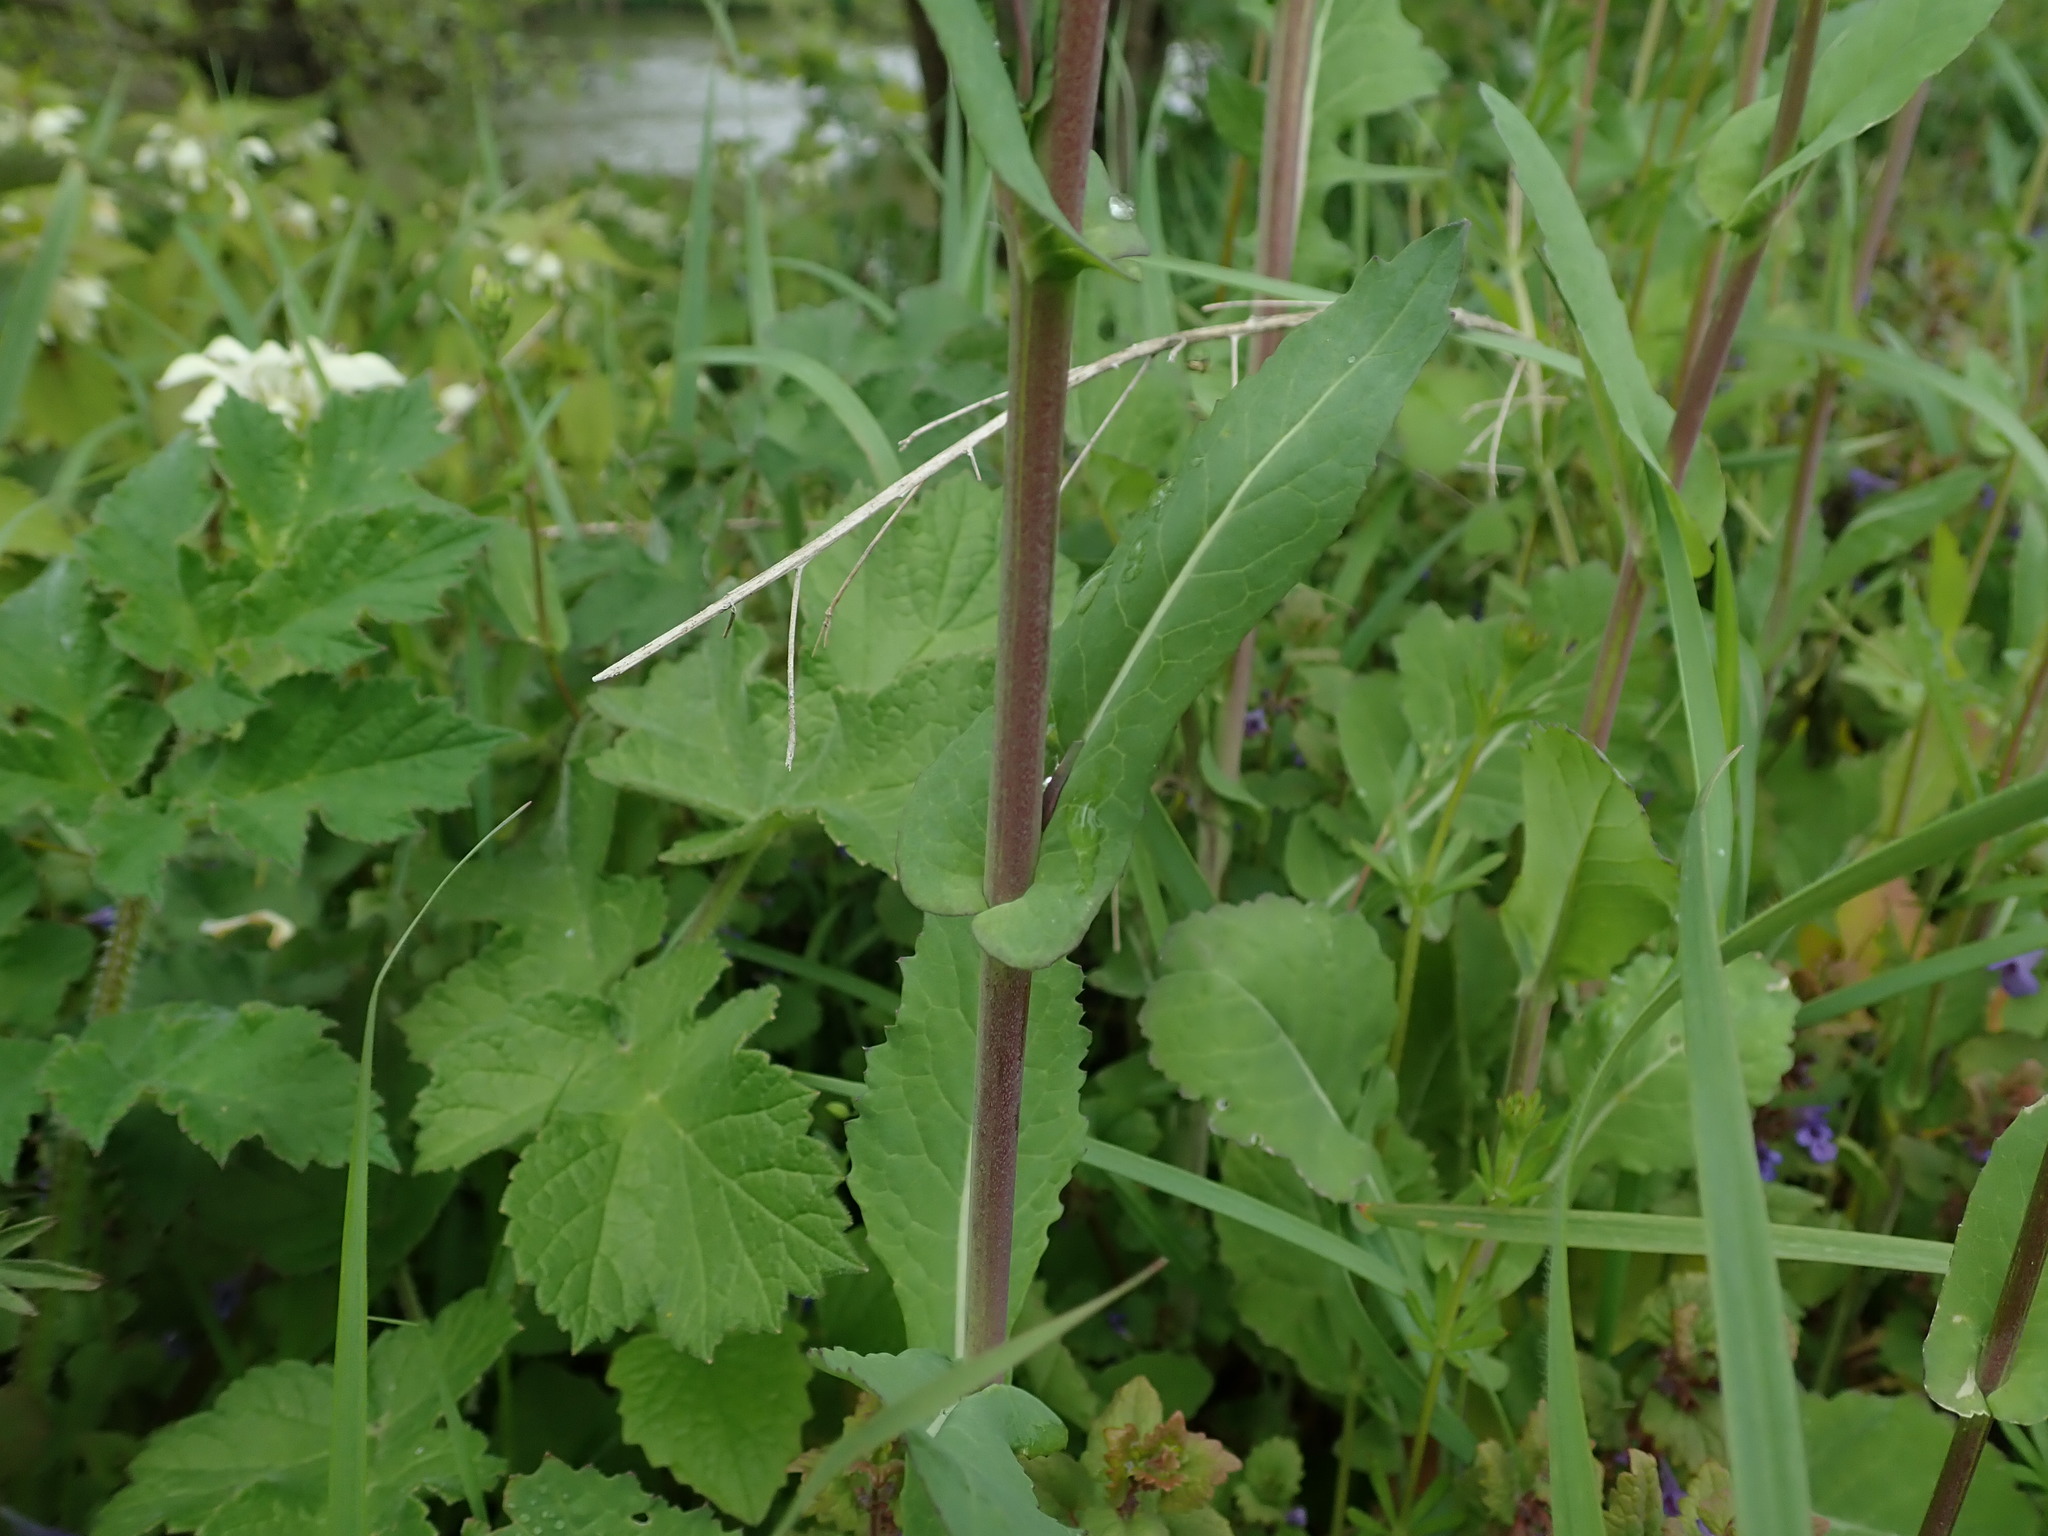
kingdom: Plantae
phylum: Tracheophyta
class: Magnoliopsida
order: Brassicales
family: Brassicaceae
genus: Brassica
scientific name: Brassica rapa
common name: Field mustard
